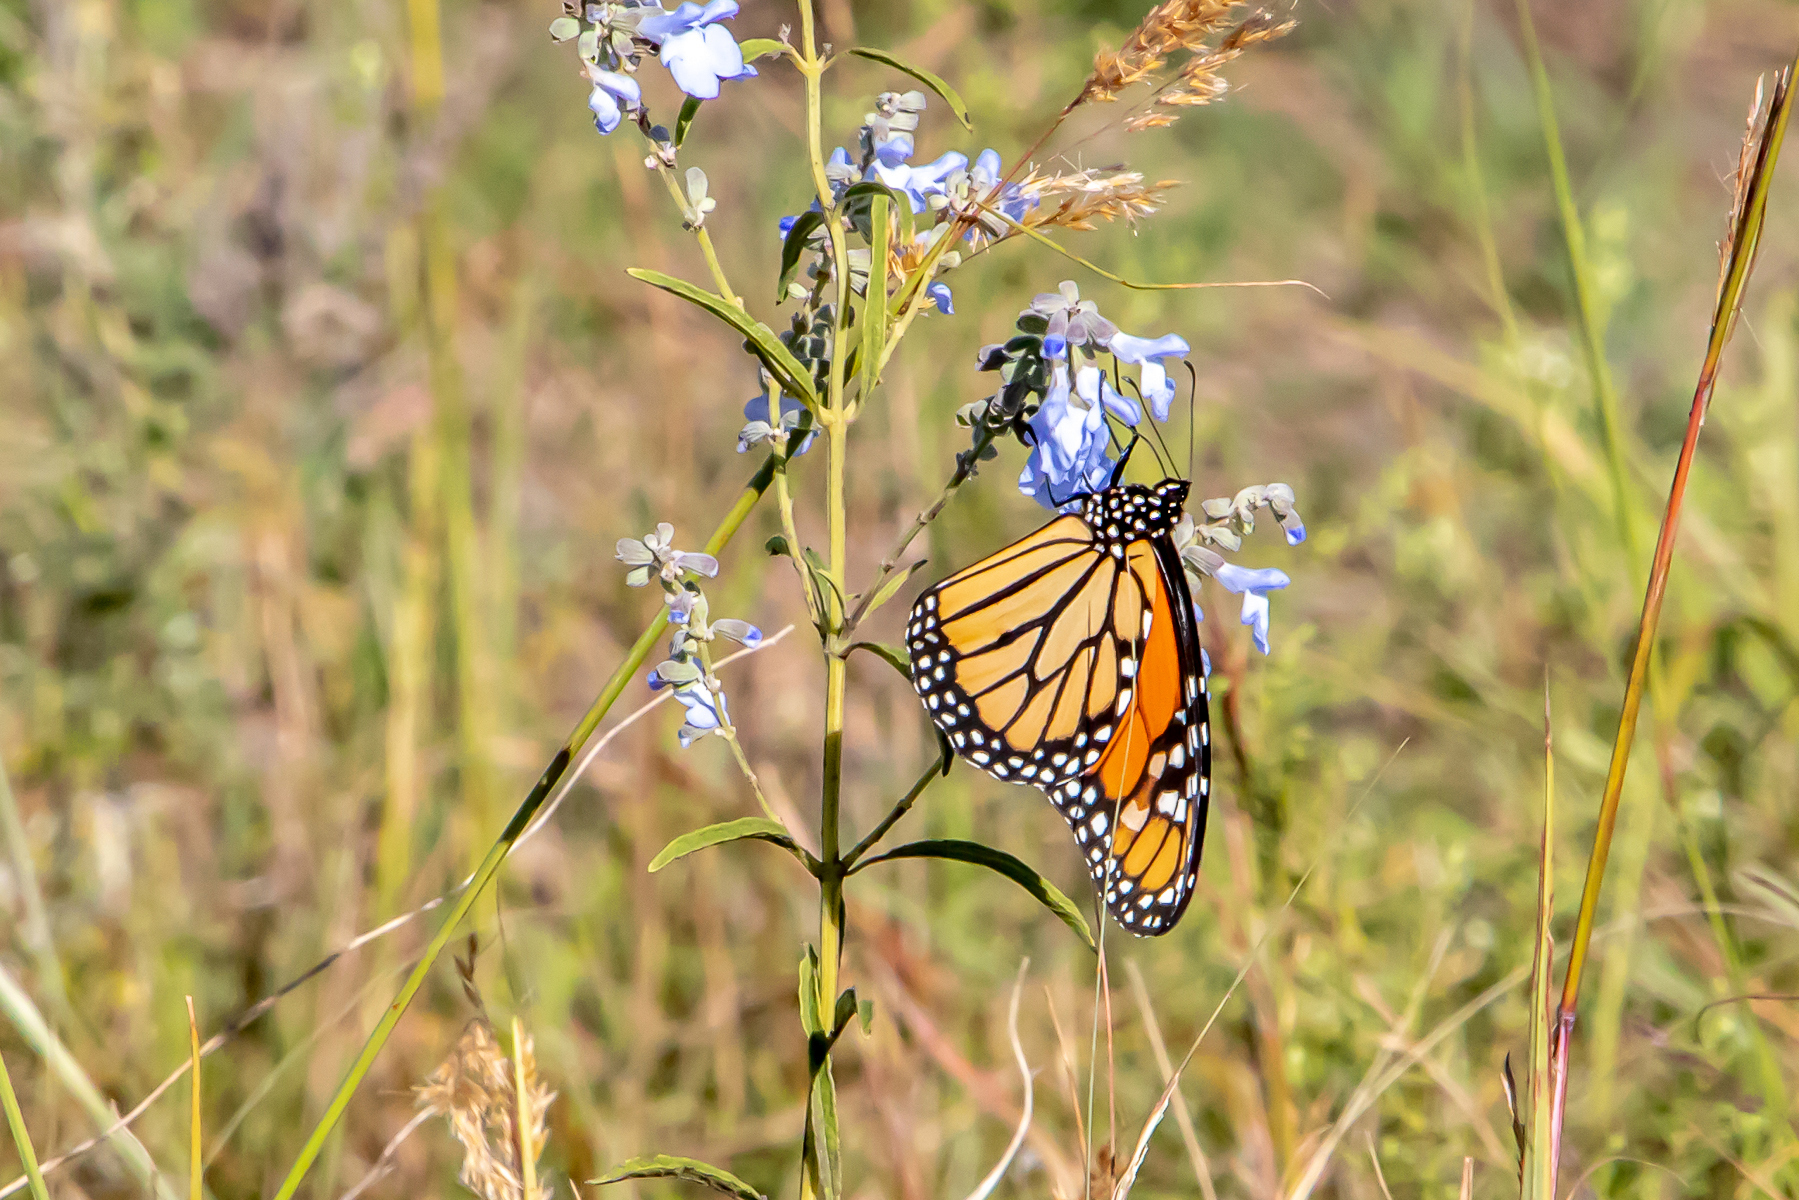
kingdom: Animalia
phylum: Arthropoda
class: Insecta
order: Lepidoptera
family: Nymphalidae
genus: Danaus
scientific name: Danaus plexippus
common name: Monarch
